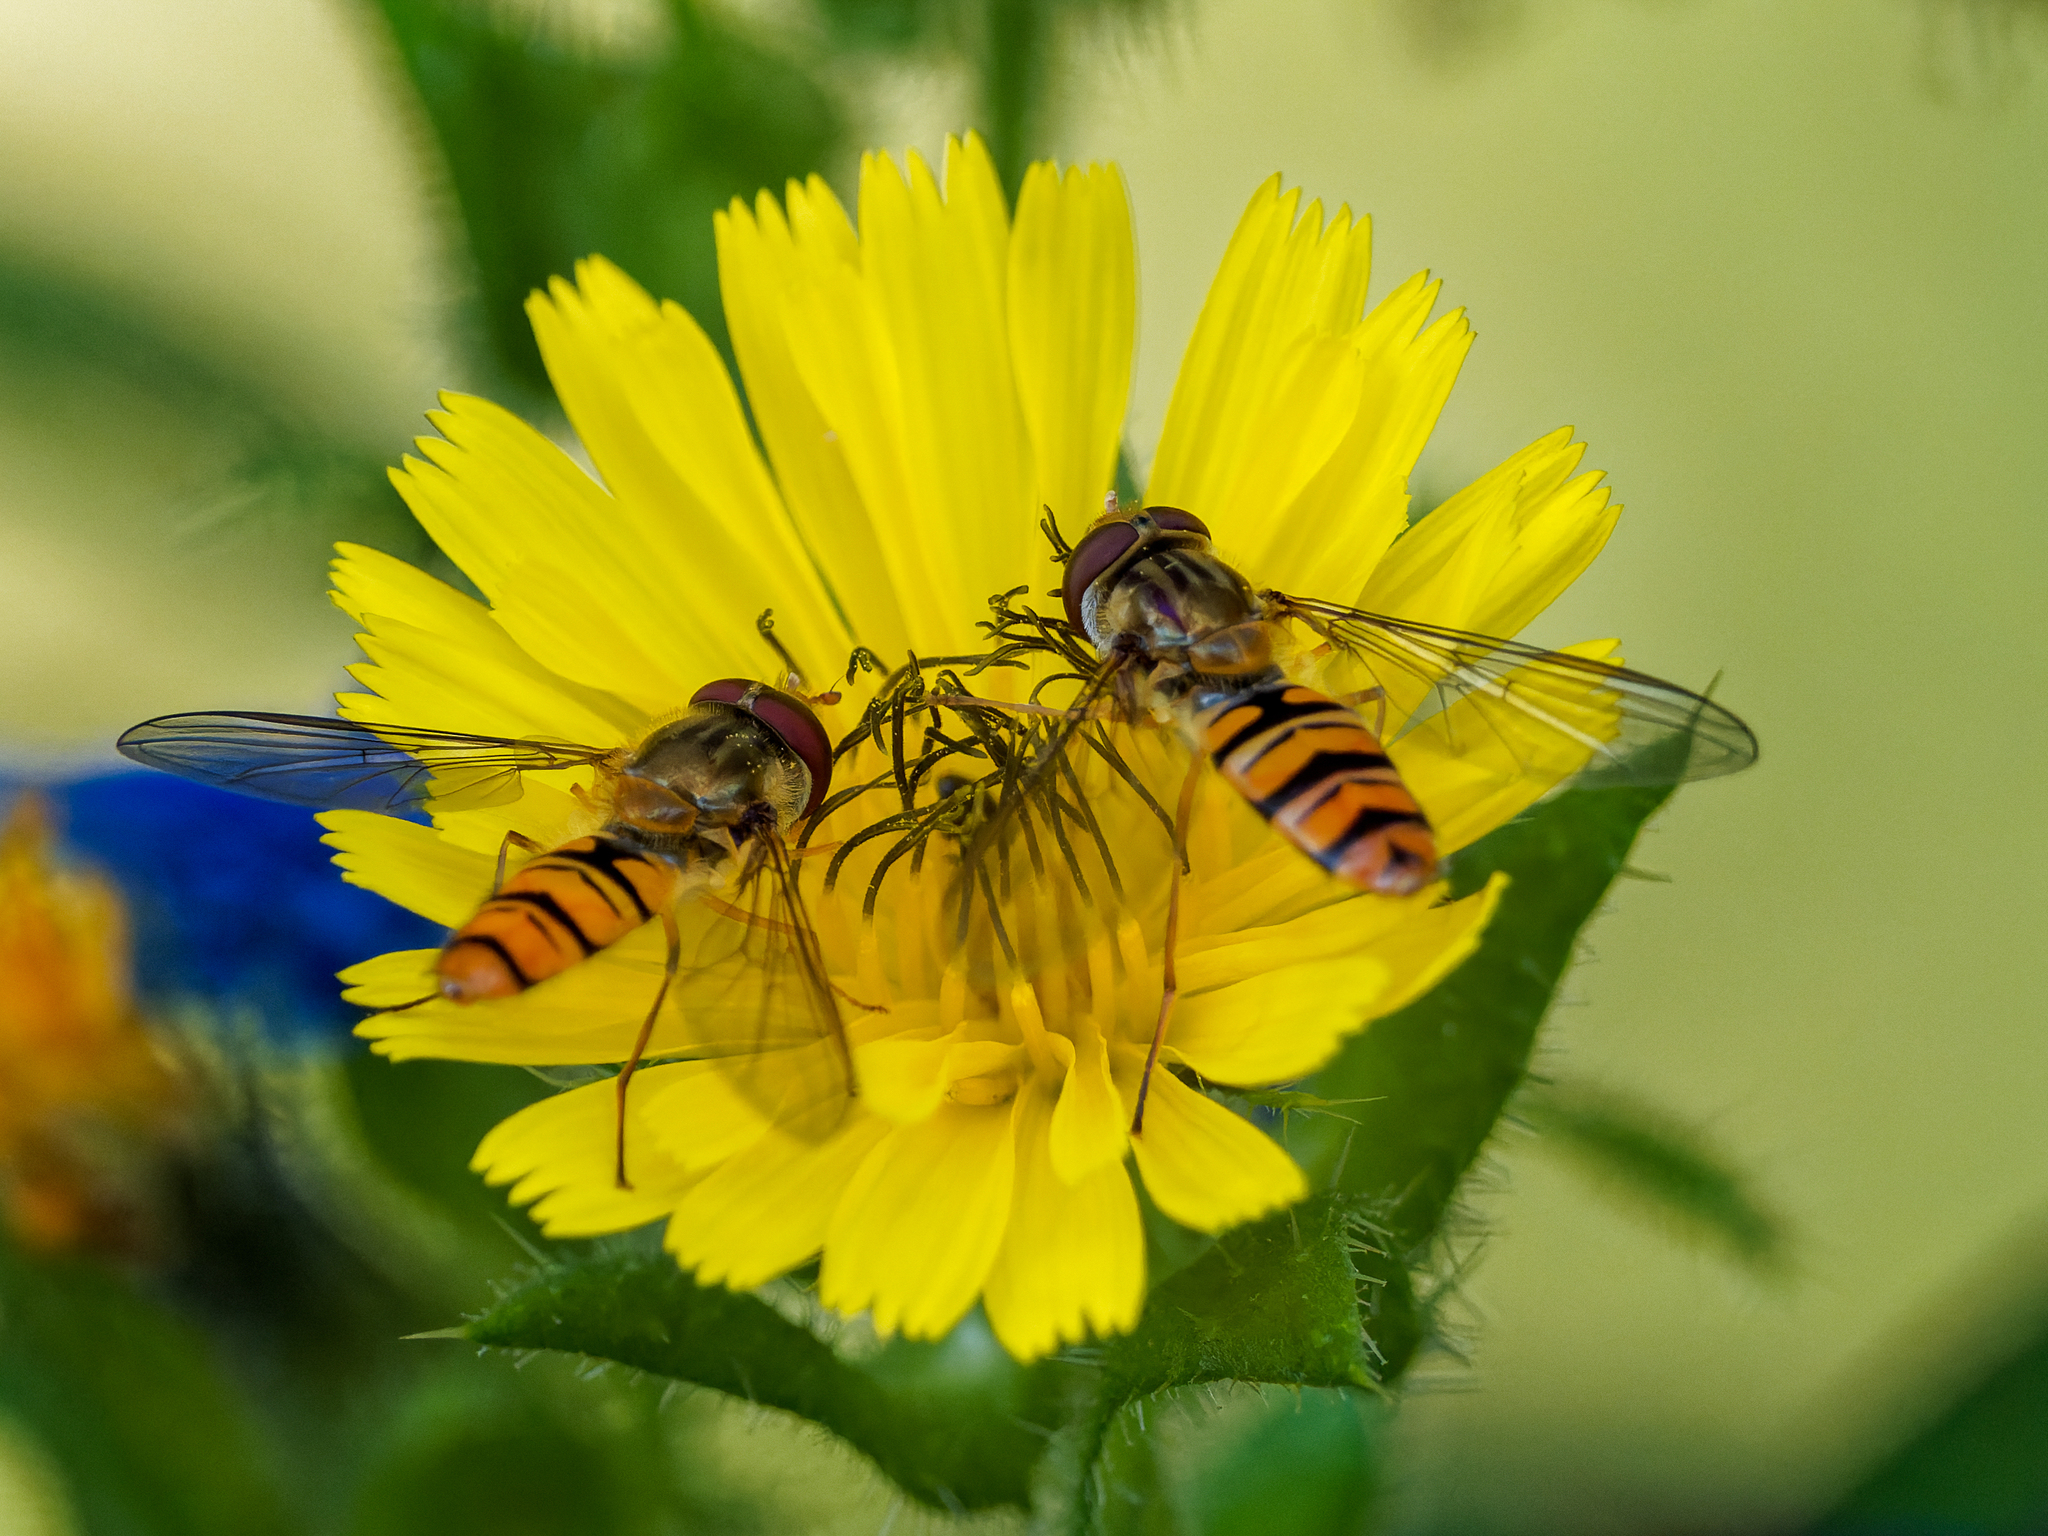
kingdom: Animalia
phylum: Arthropoda
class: Insecta
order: Diptera
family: Syrphidae
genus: Episyrphus
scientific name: Episyrphus balteatus
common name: Marmalade hoverfly
